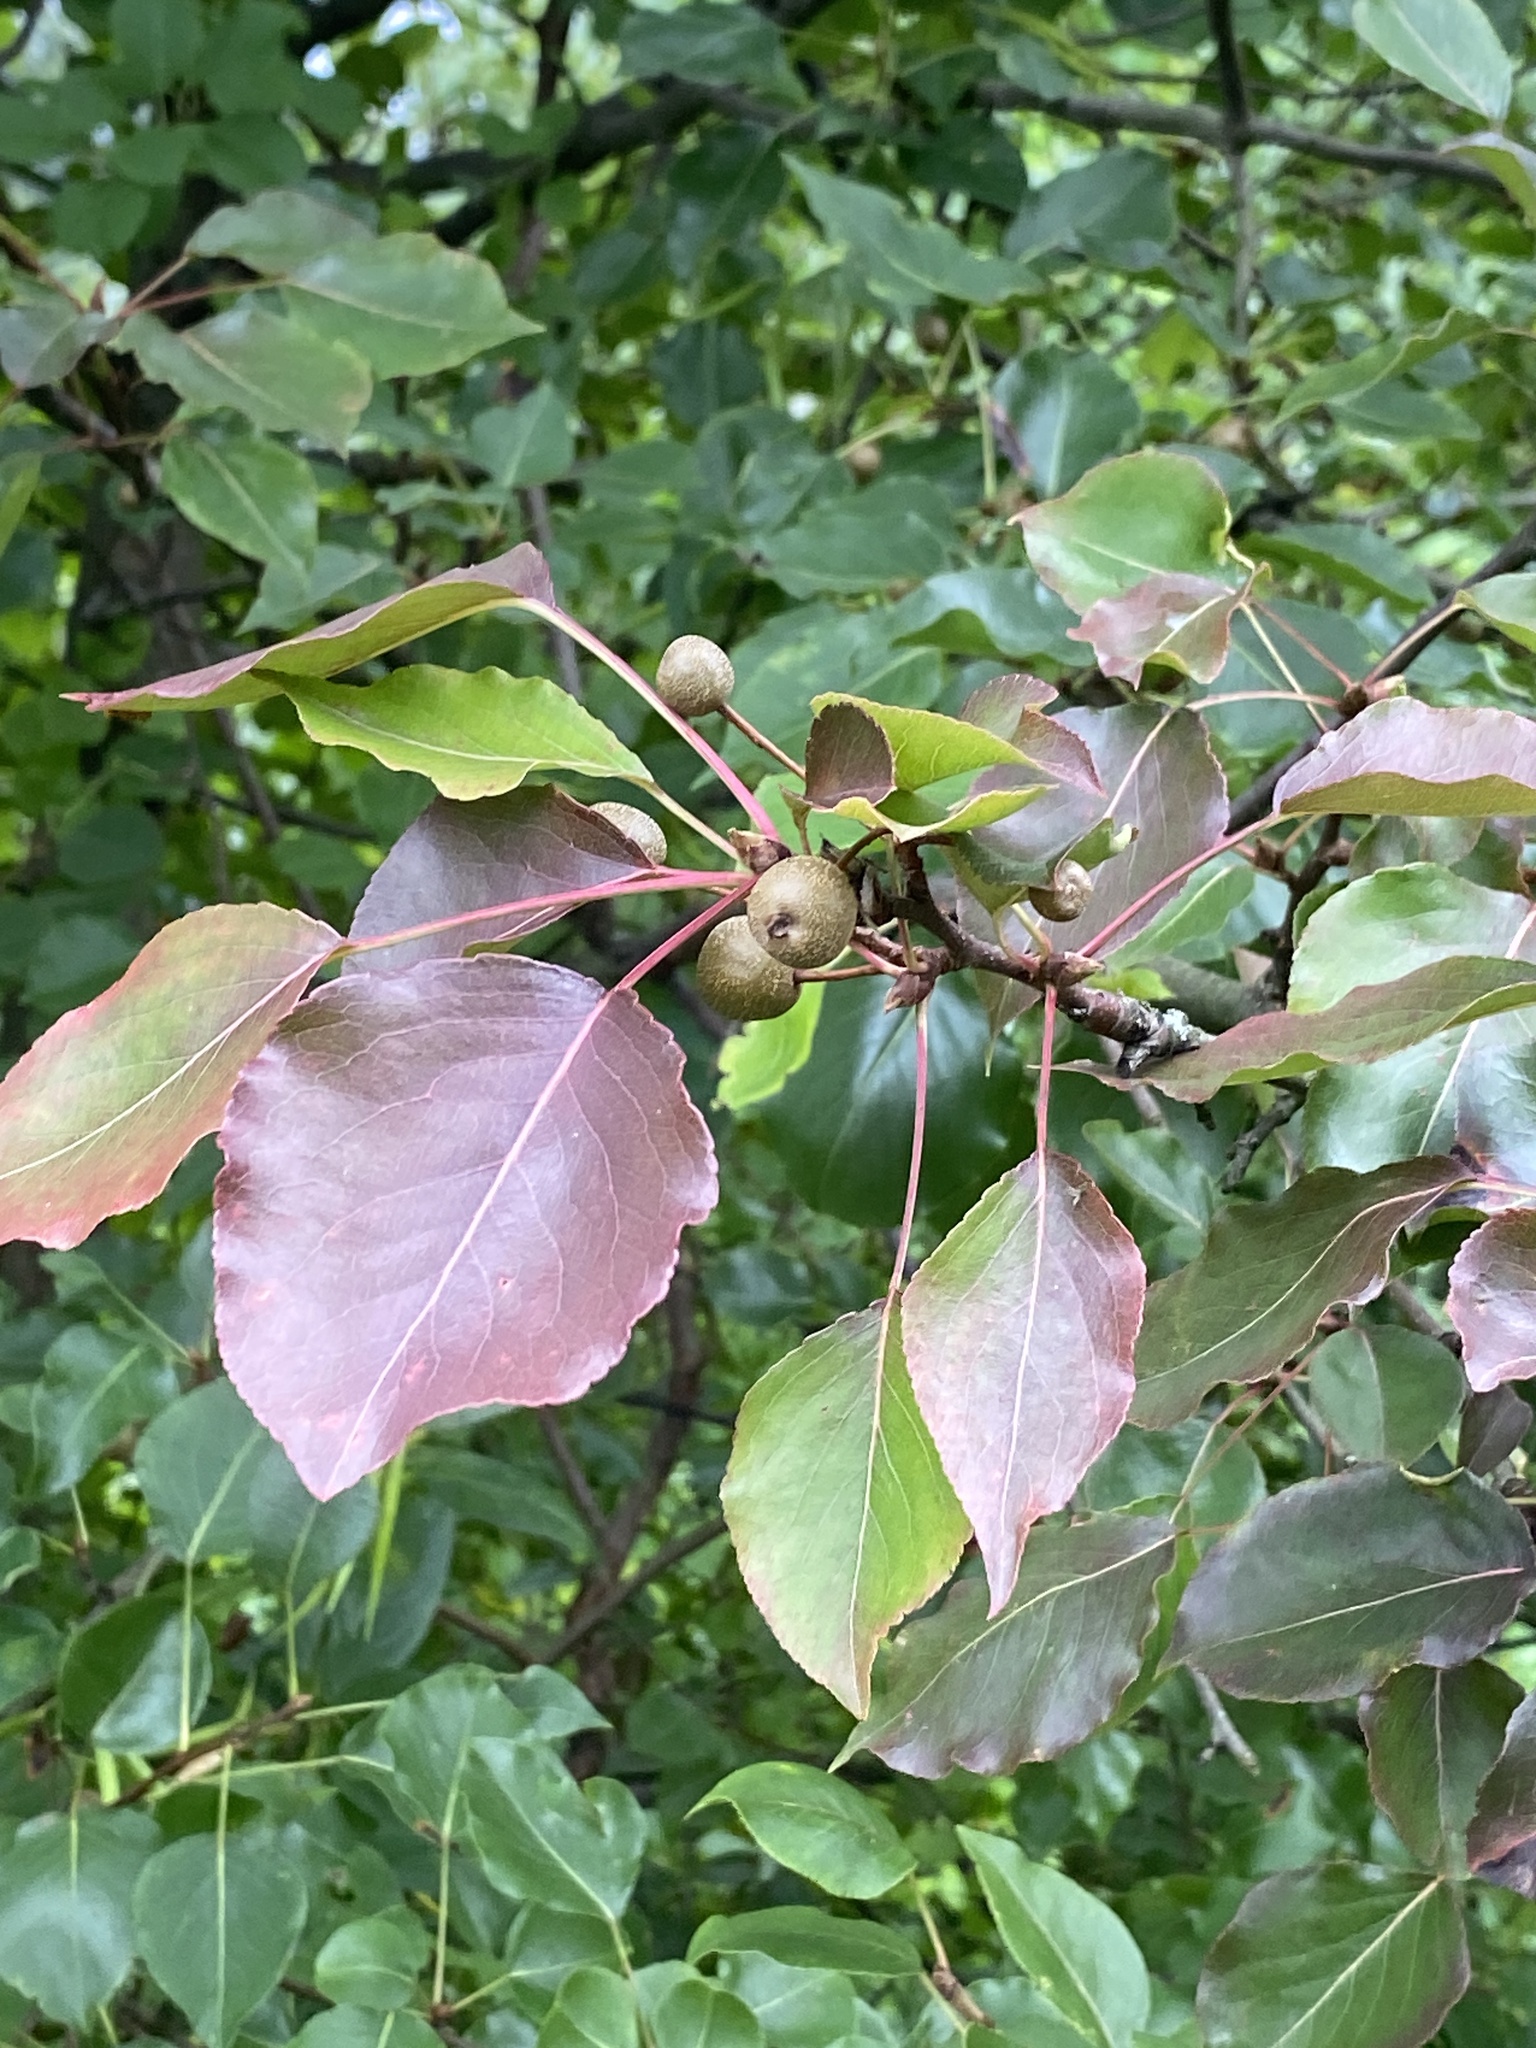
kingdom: Plantae
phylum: Tracheophyta
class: Magnoliopsida
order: Rosales
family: Rosaceae
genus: Pyrus
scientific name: Pyrus calleryana
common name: Callery pear
